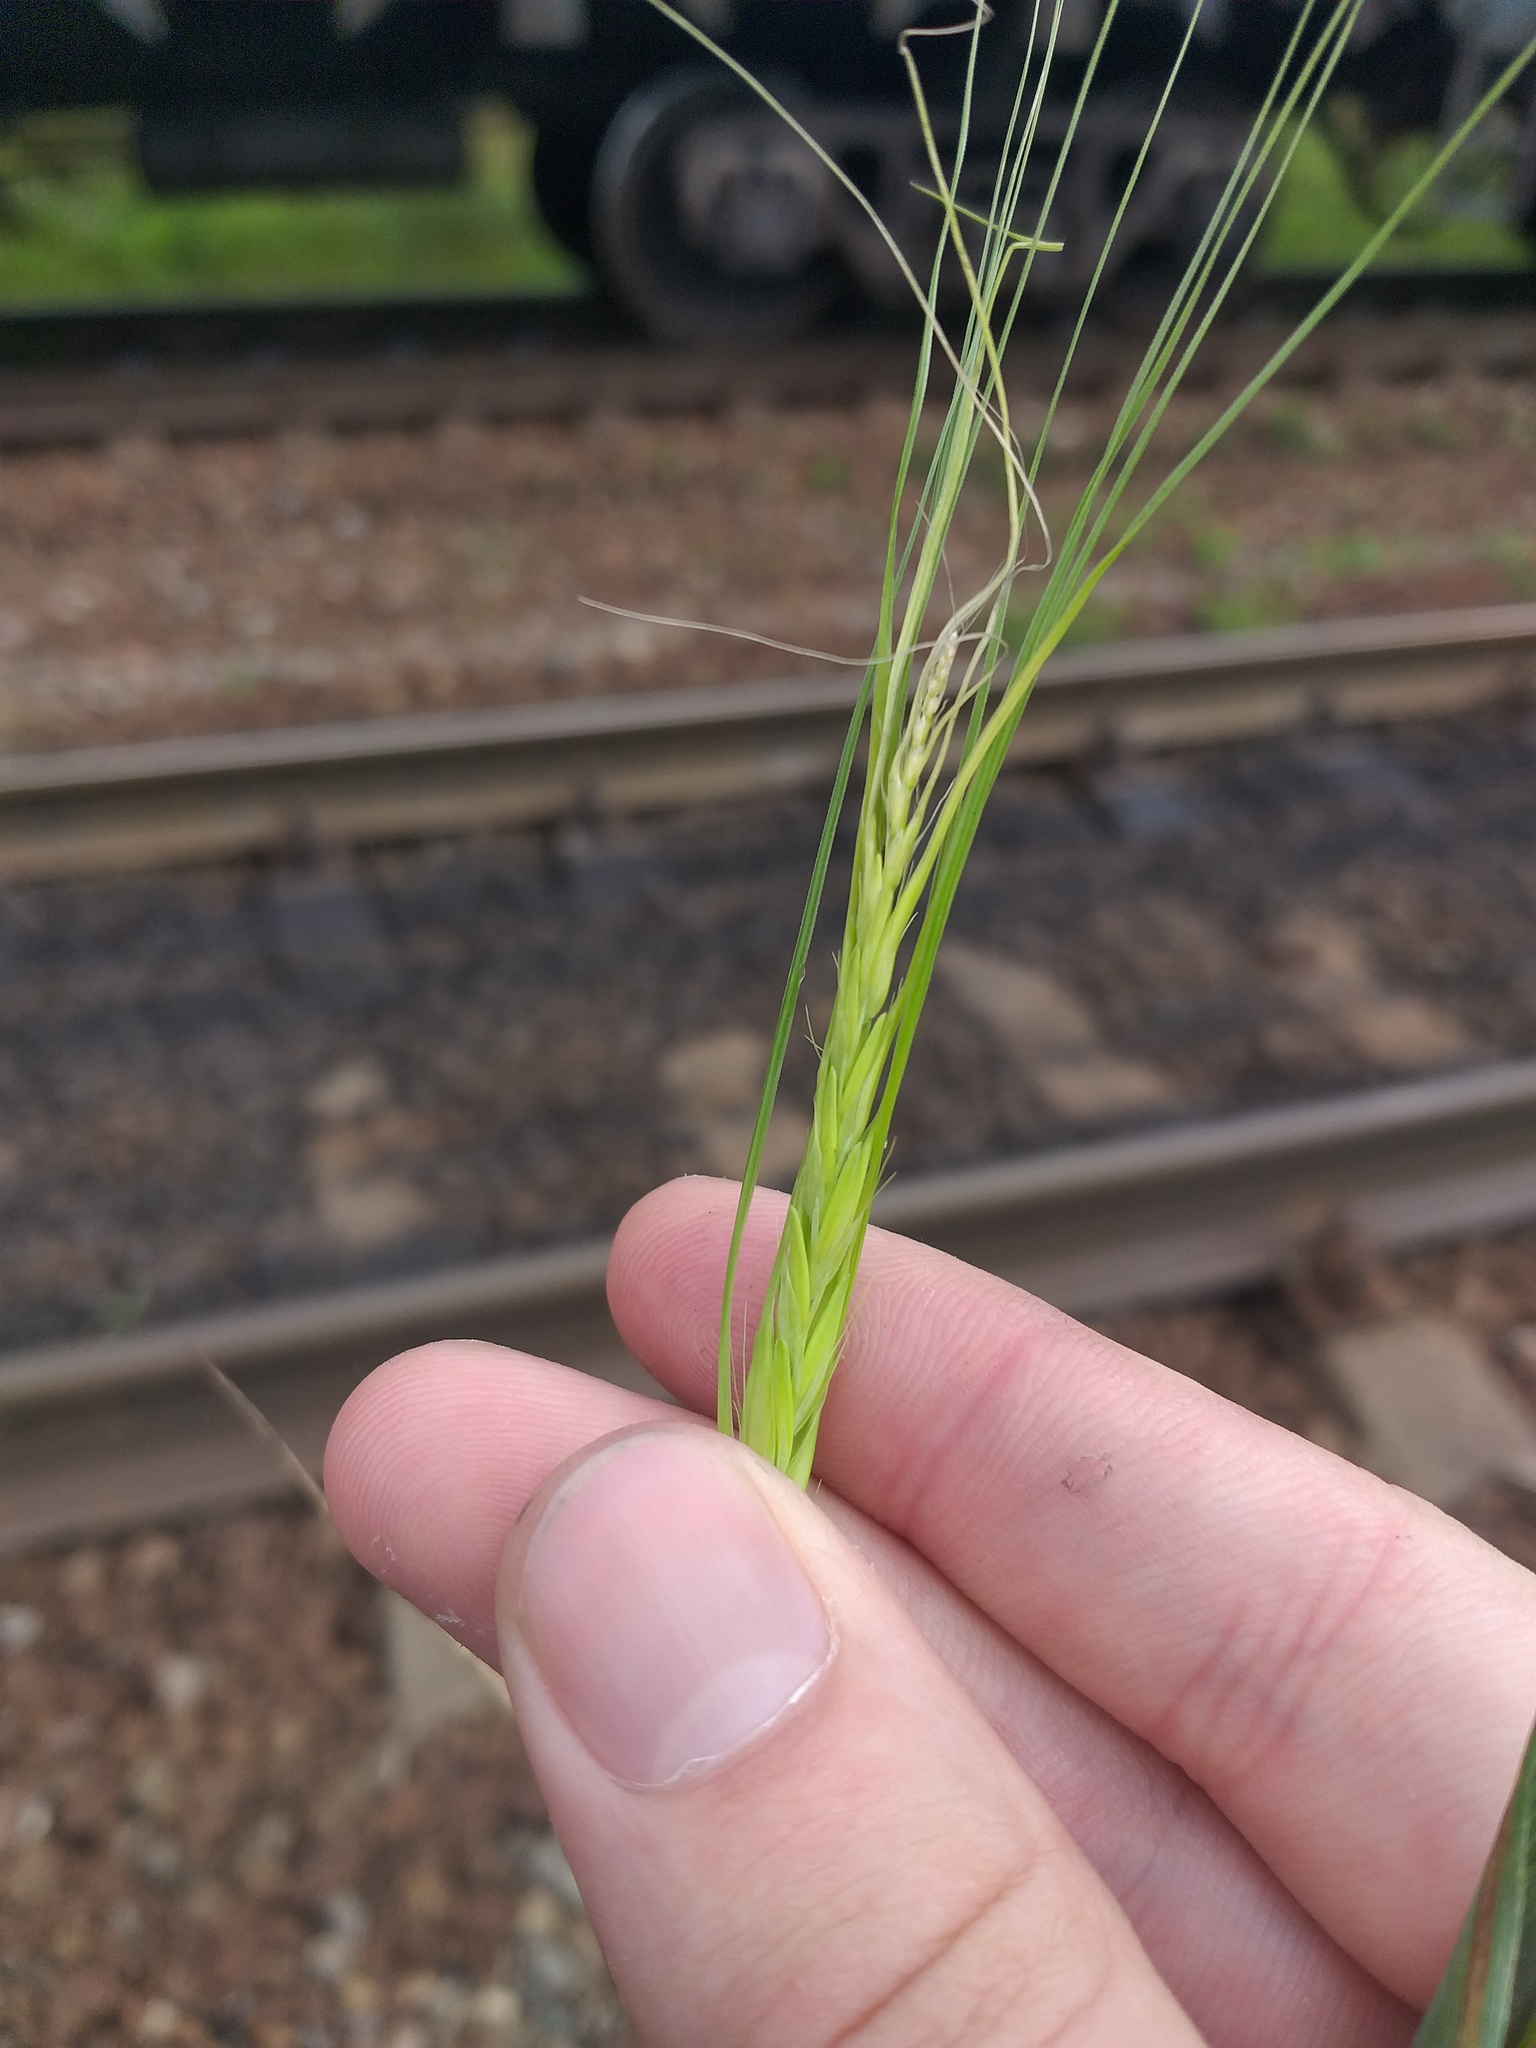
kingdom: Plantae
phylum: Tracheophyta
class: Liliopsida
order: Poales
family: Poaceae
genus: Hordeum
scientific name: Hordeum vulgare
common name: Common barley
